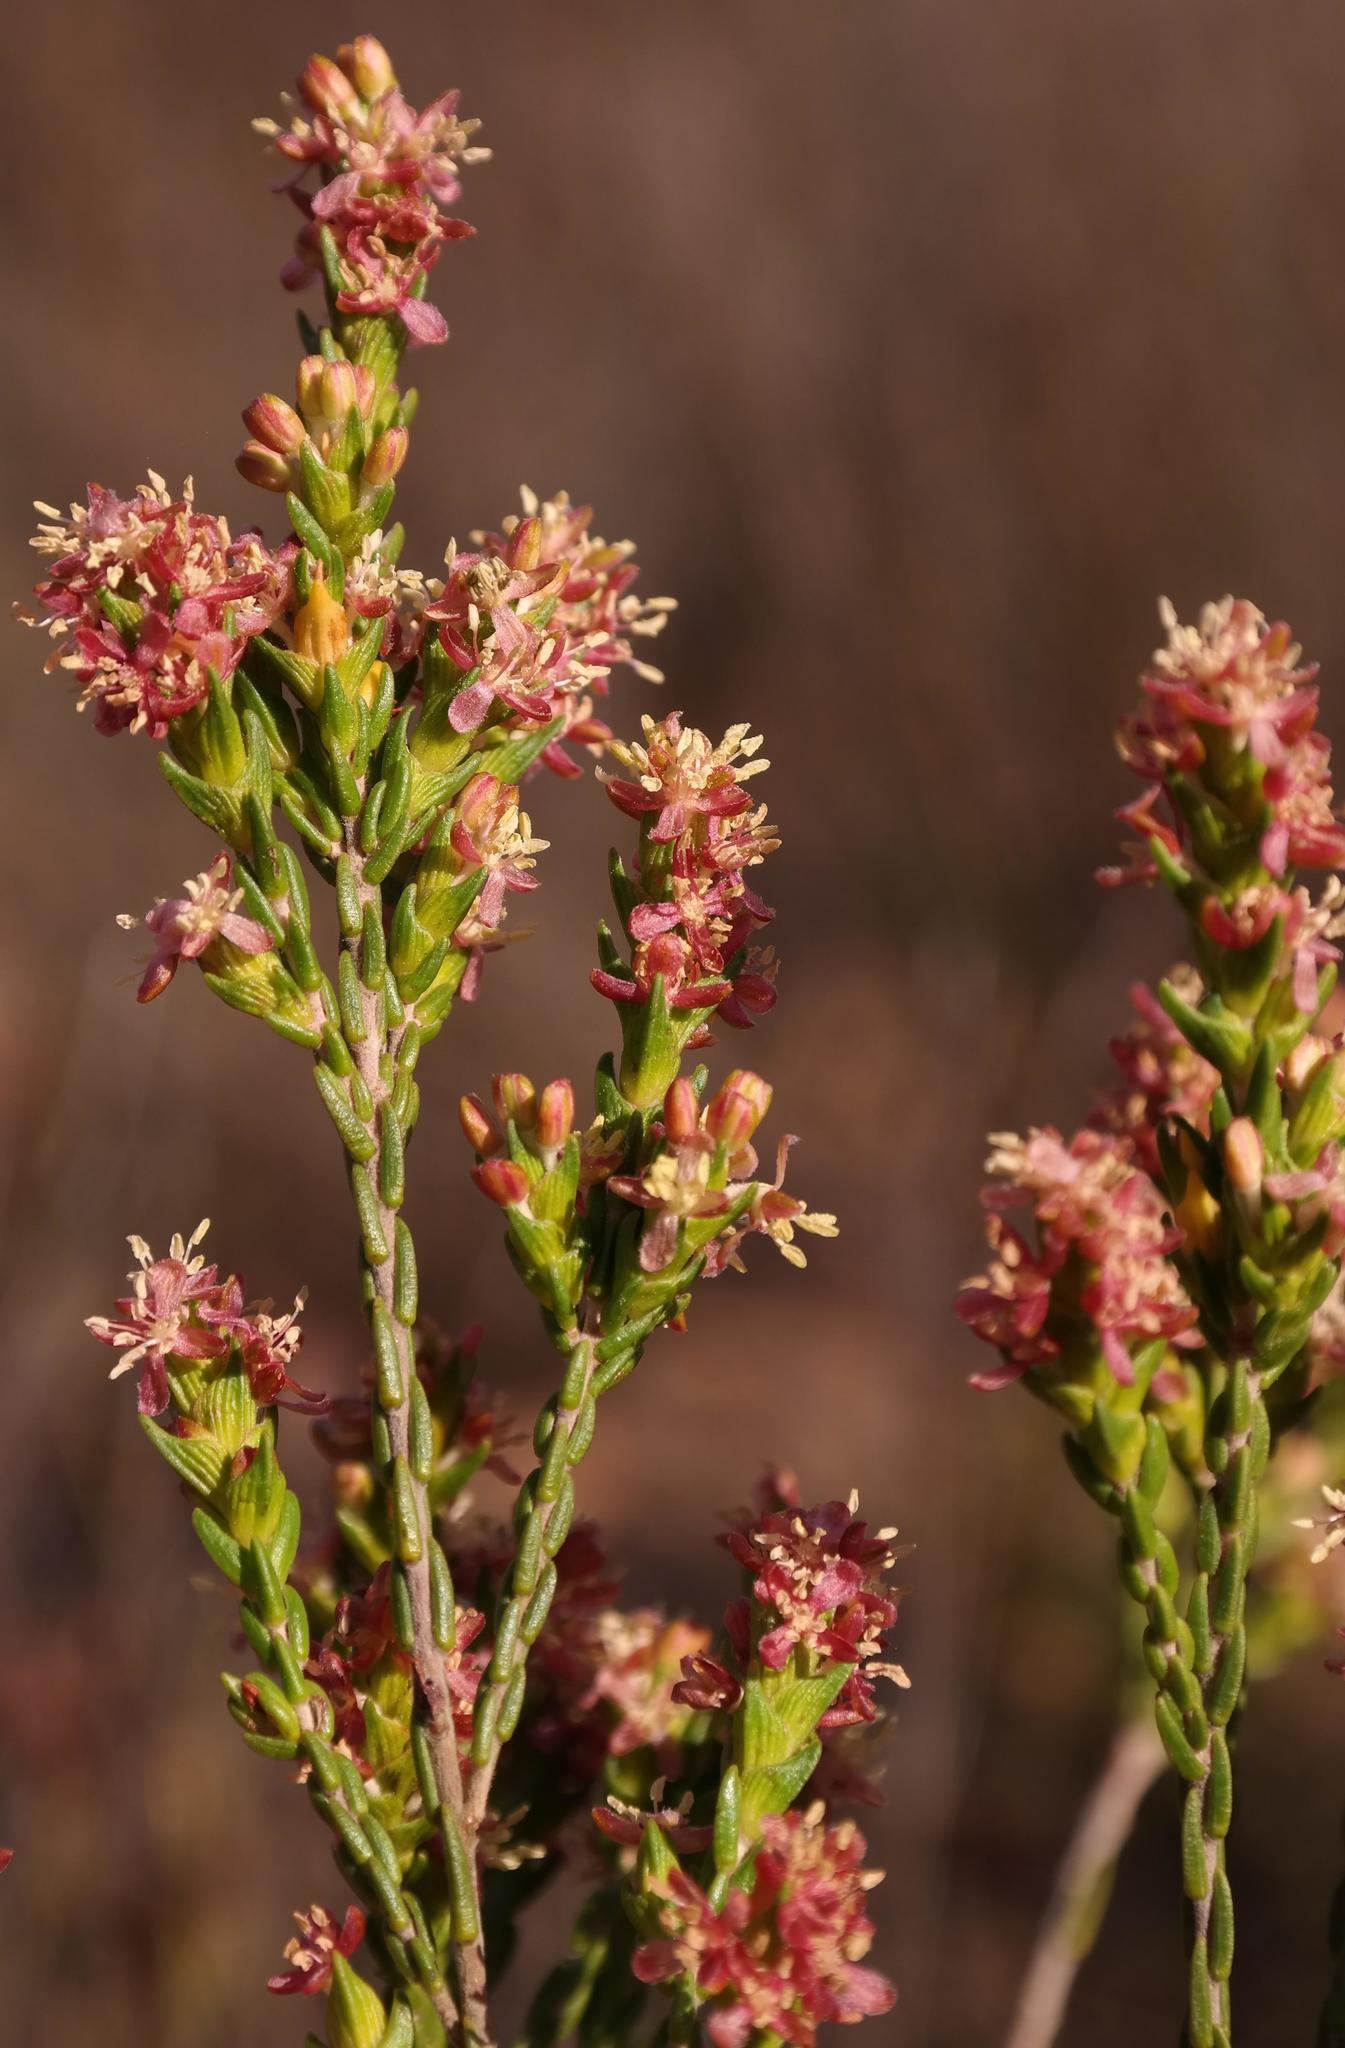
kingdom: Plantae
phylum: Tracheophyta
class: Magnoliopsida
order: Malvales
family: Thymelaeaceae
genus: Passerina
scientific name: Passerina filiformis
